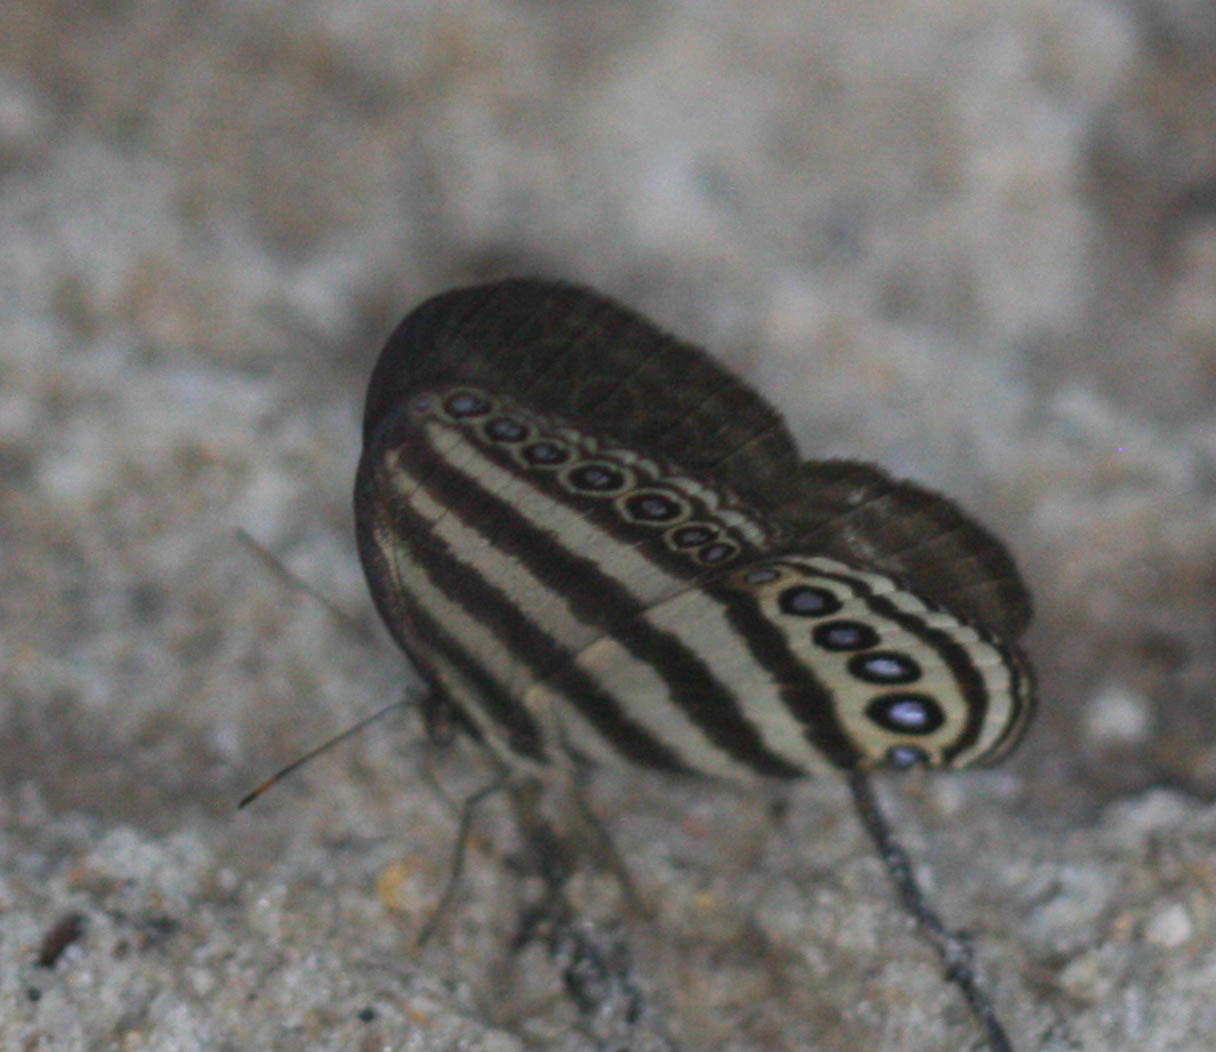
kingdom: Animalia
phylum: Arthropoda
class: Insecta
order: Lepidoptera
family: Nymphalidae
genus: Ragadia
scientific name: Ragadia makata
